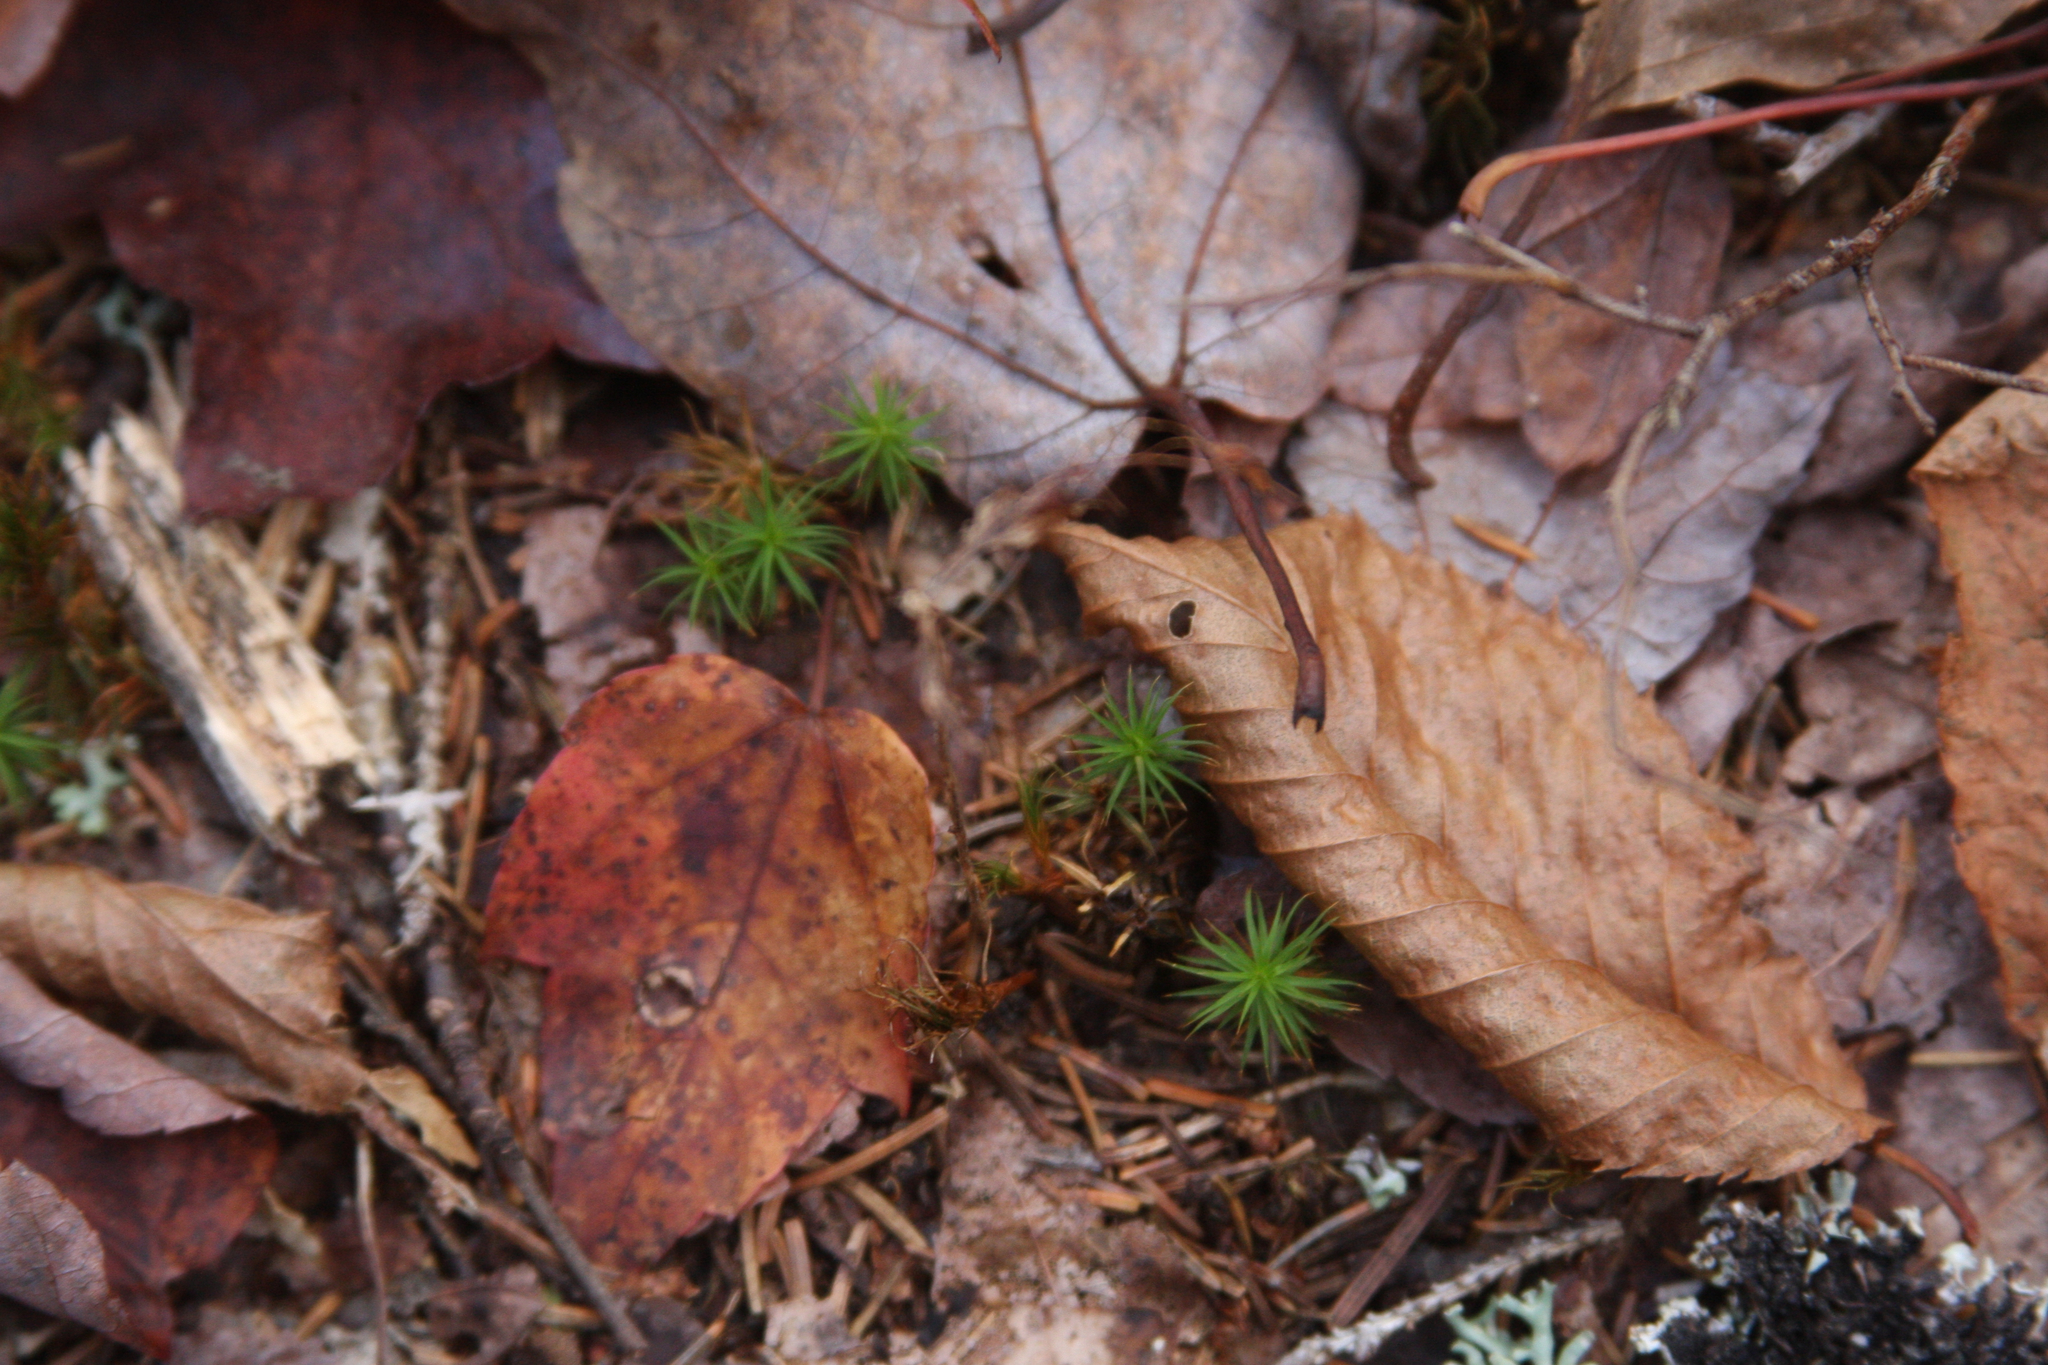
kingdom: Plantae
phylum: Tracheophyta
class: Magnoliopsida
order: Sapindales
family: Sapindaceae
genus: Acer
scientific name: Acer rubrum
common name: Red maple
